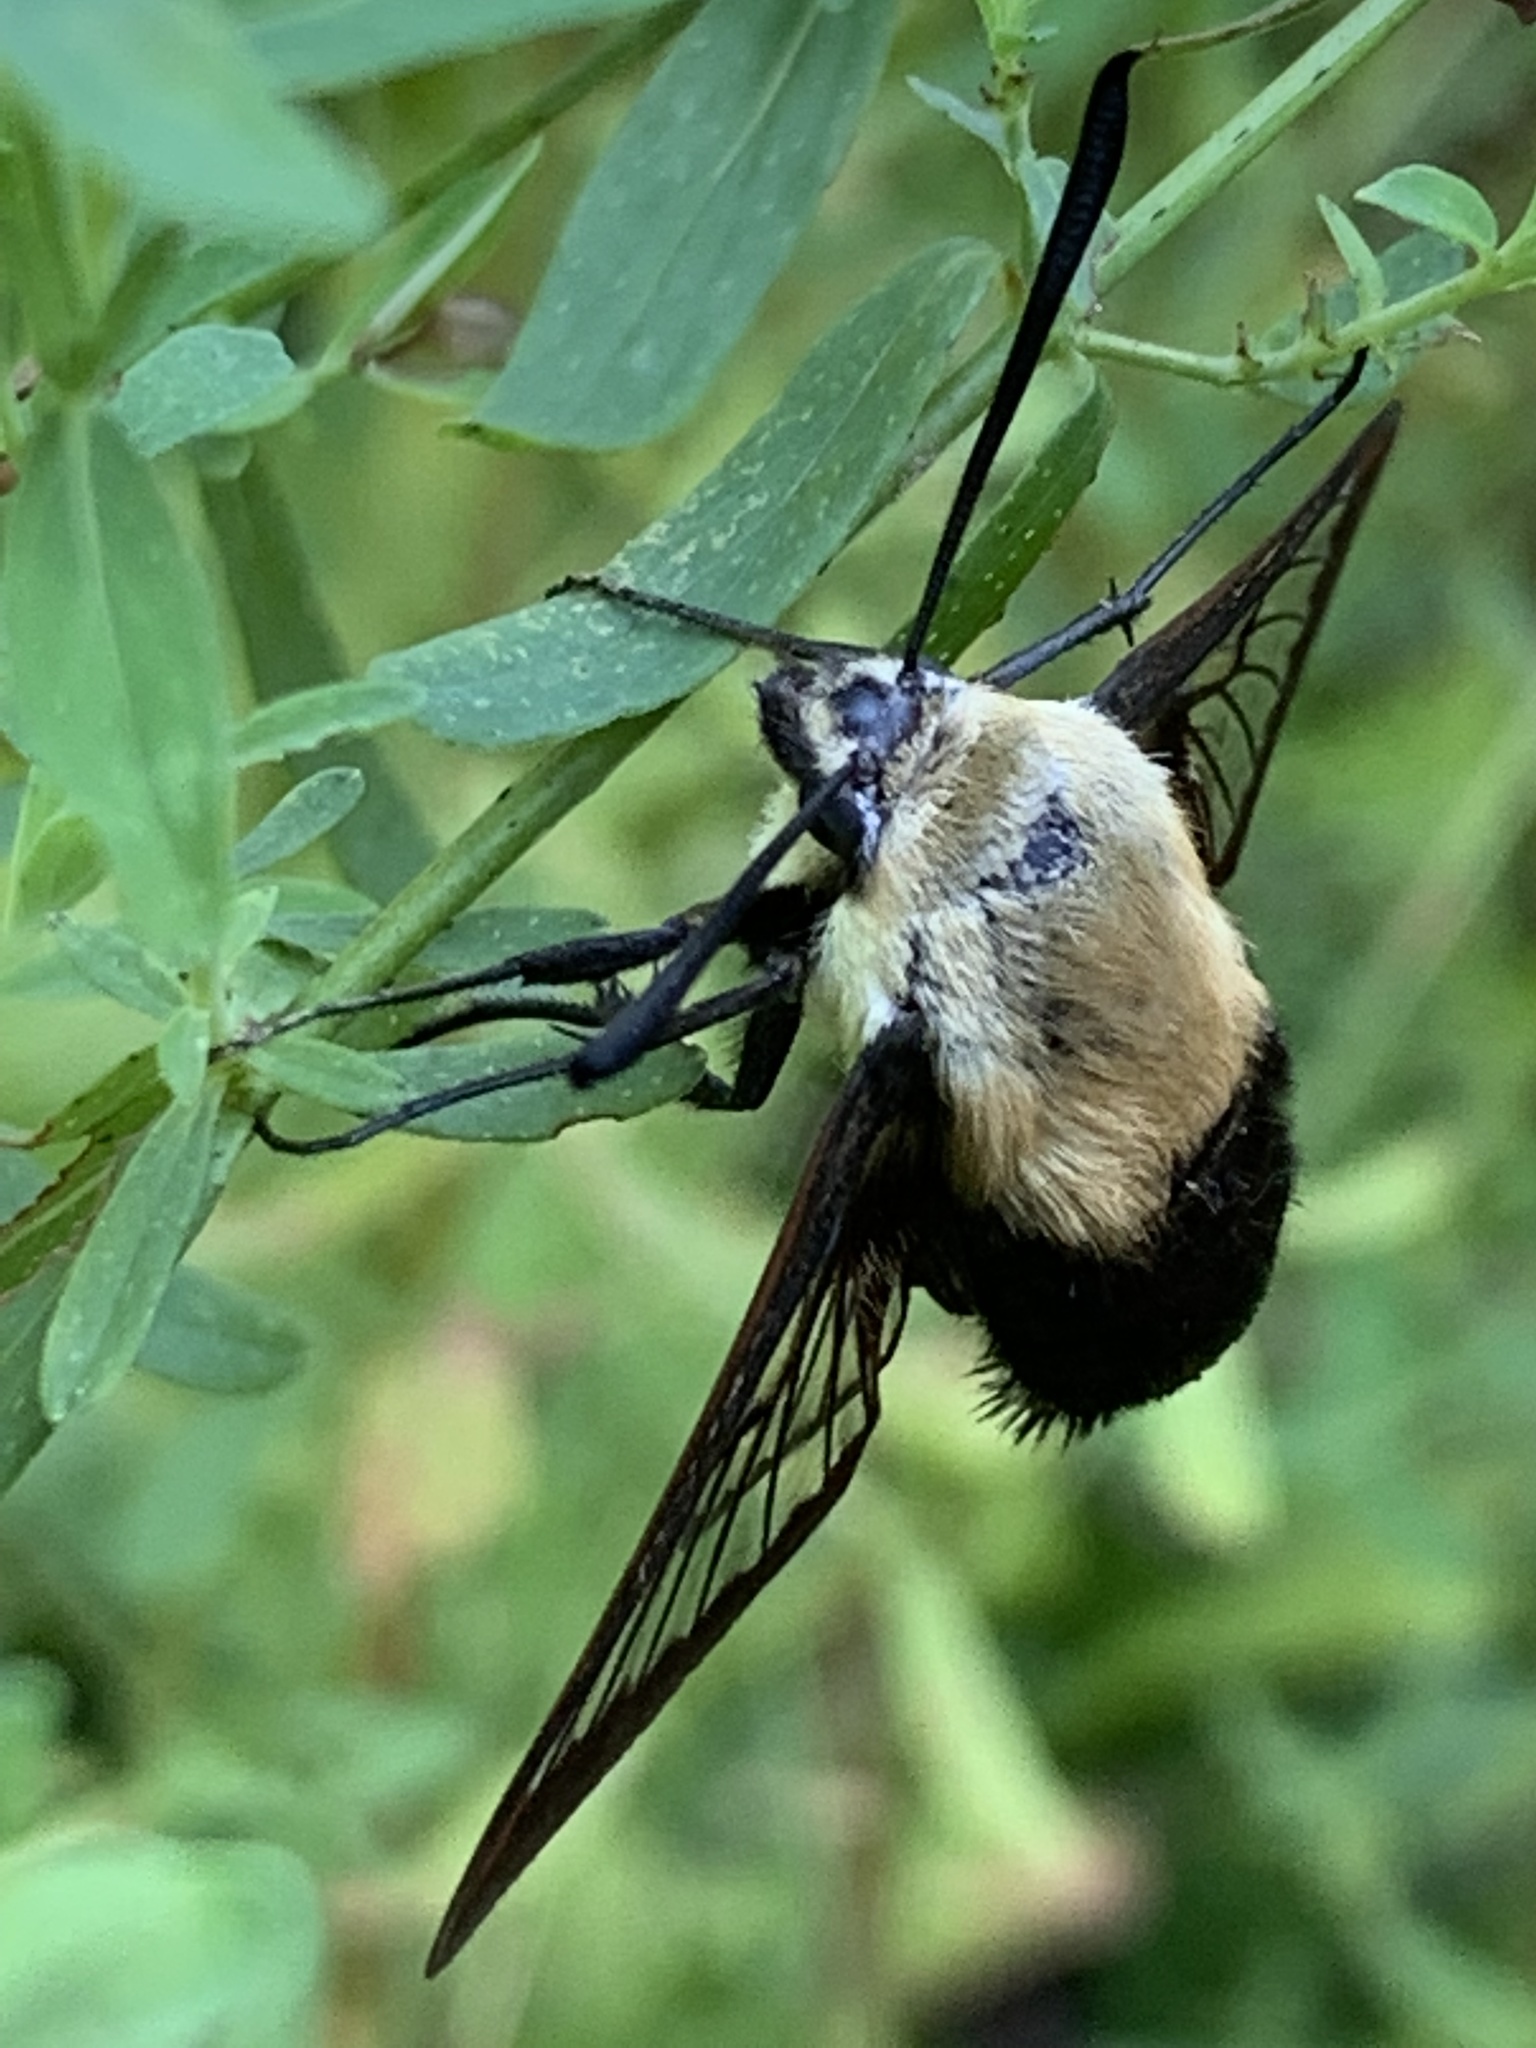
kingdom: Animalia
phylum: Arthropoda
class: Insecta
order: Lepidoptera
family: Sphingidae
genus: Hemaris
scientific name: Hemaris diffinis
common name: Bumblebee moth
